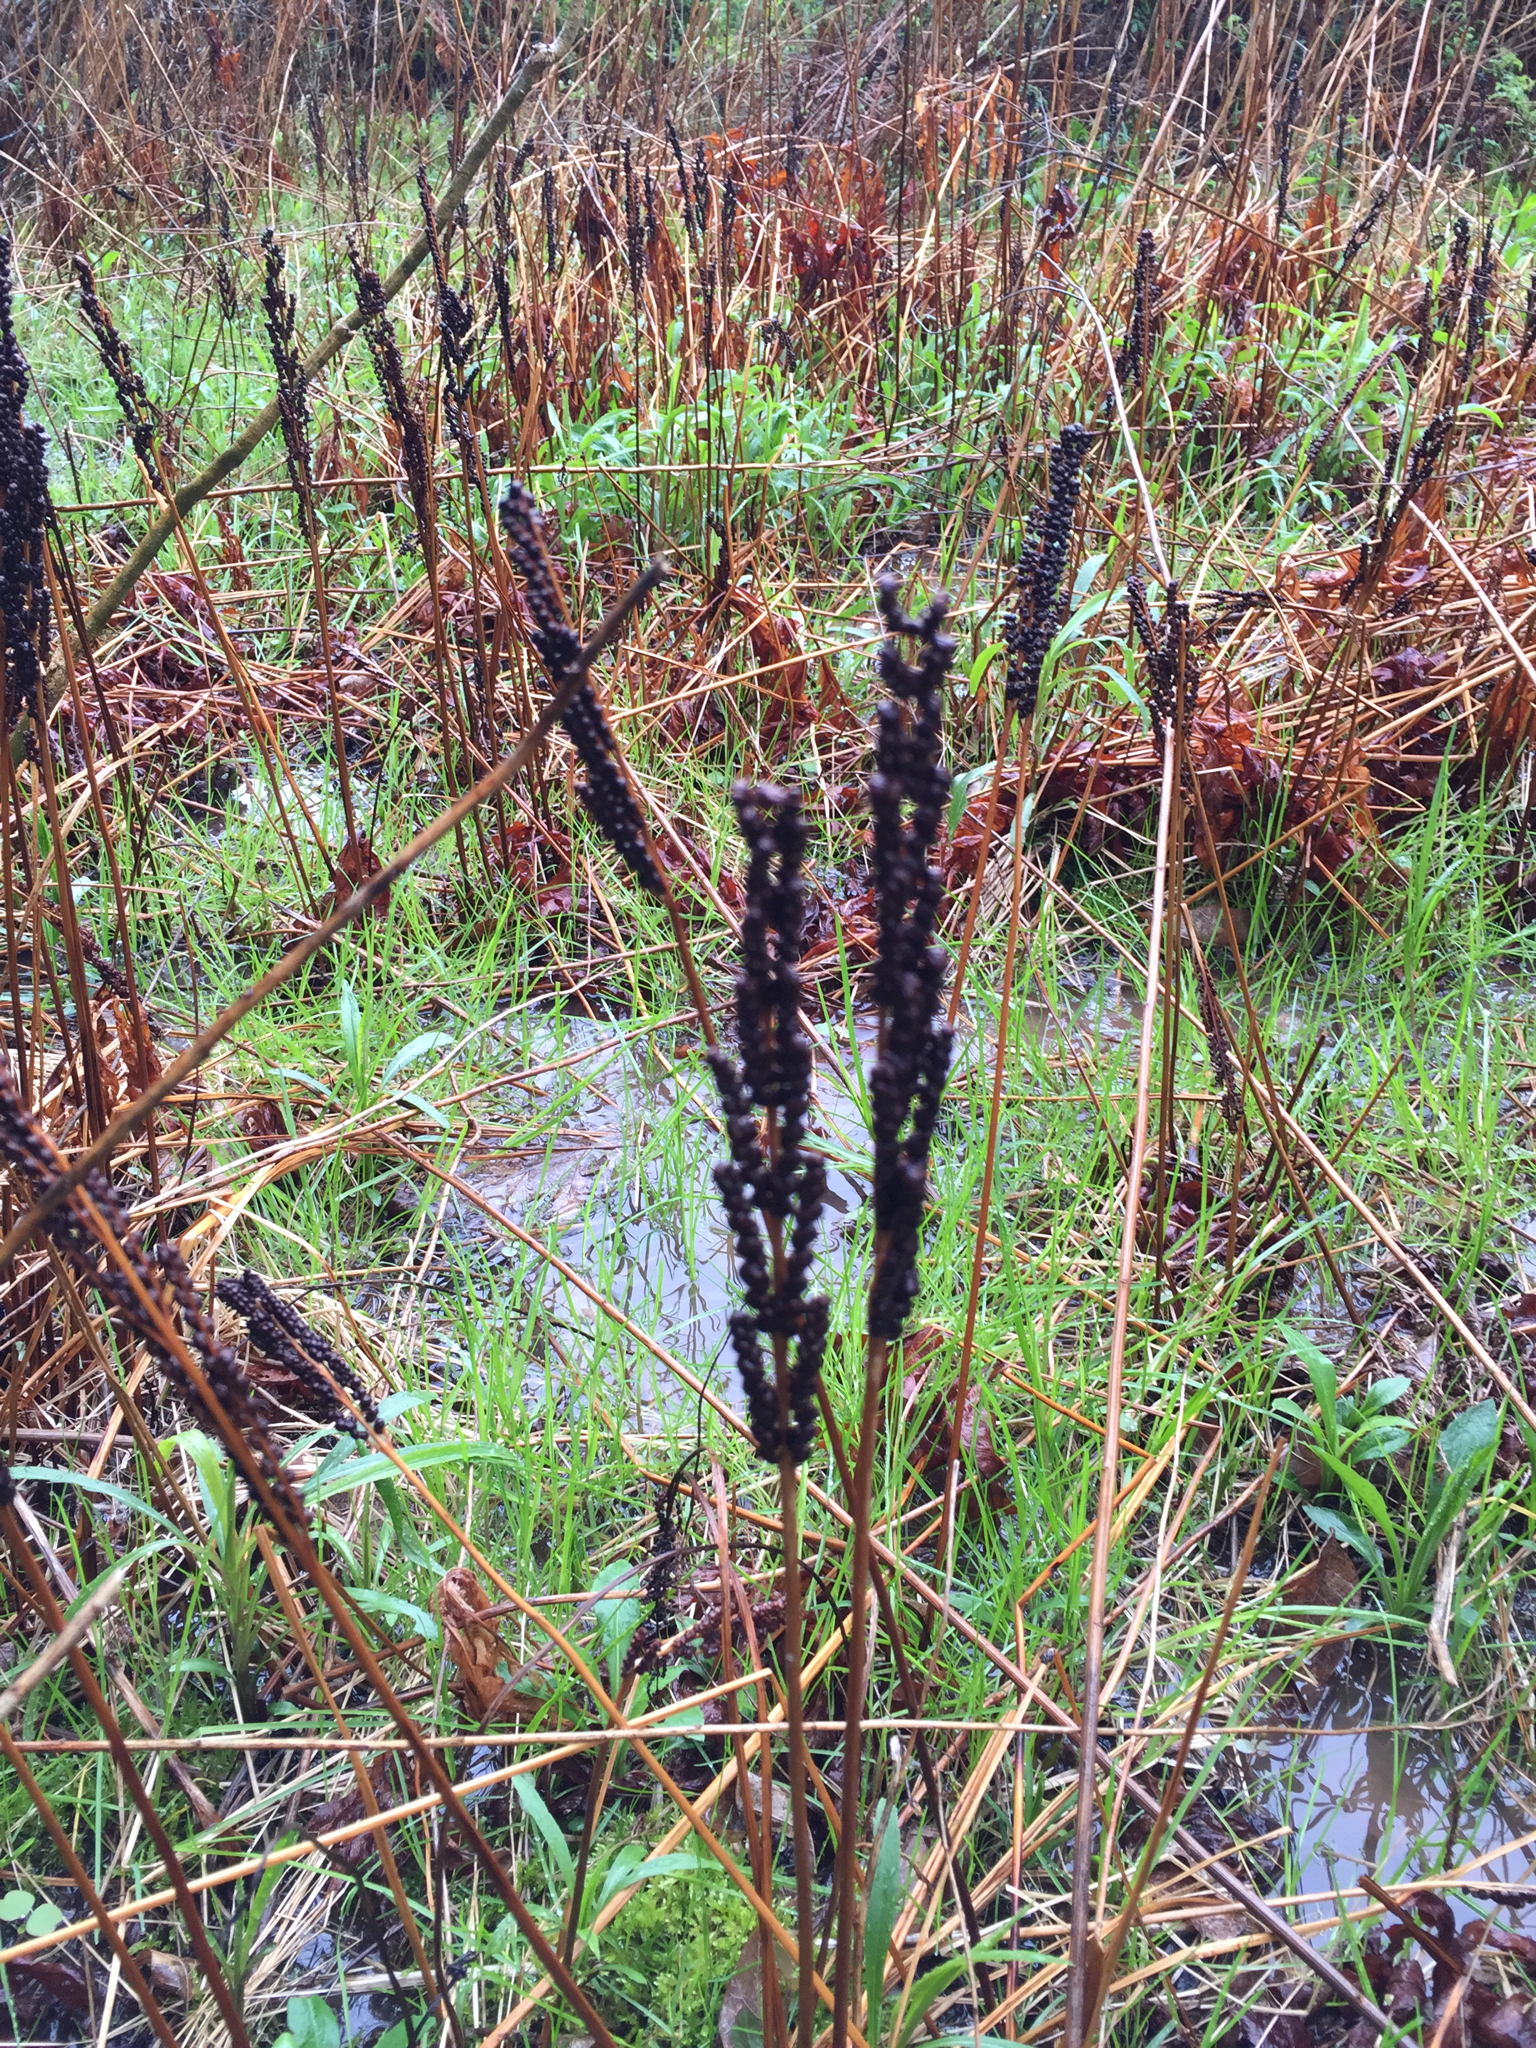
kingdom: Plantae
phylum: Tracheophyta
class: Polypodiopsida
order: Polypodiales
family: Onocleaceae
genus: Onoclea
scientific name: Onoclea sensibilis
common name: Sensitive fern
